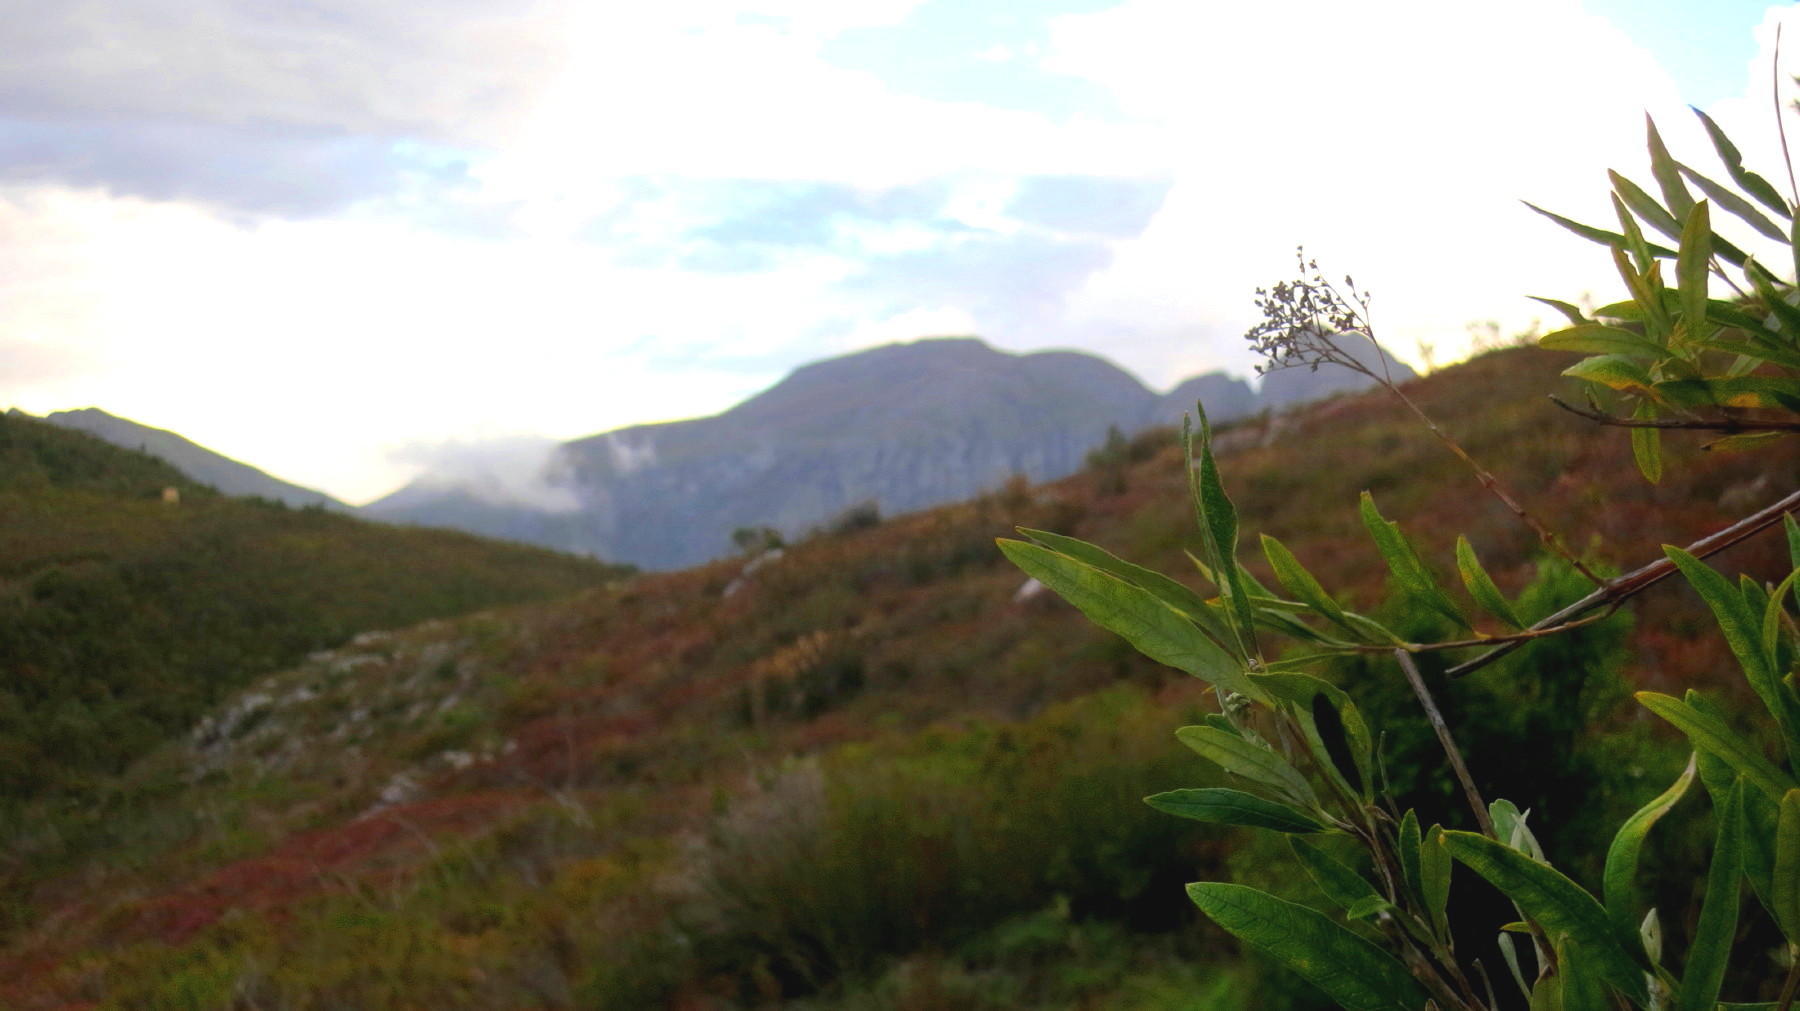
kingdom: Plantae
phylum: Tracheophyta
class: Magnoliopsida
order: Lamiales
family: Scrophulariaceae
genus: Buddleja
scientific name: Buddleja saligna
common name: False olive
